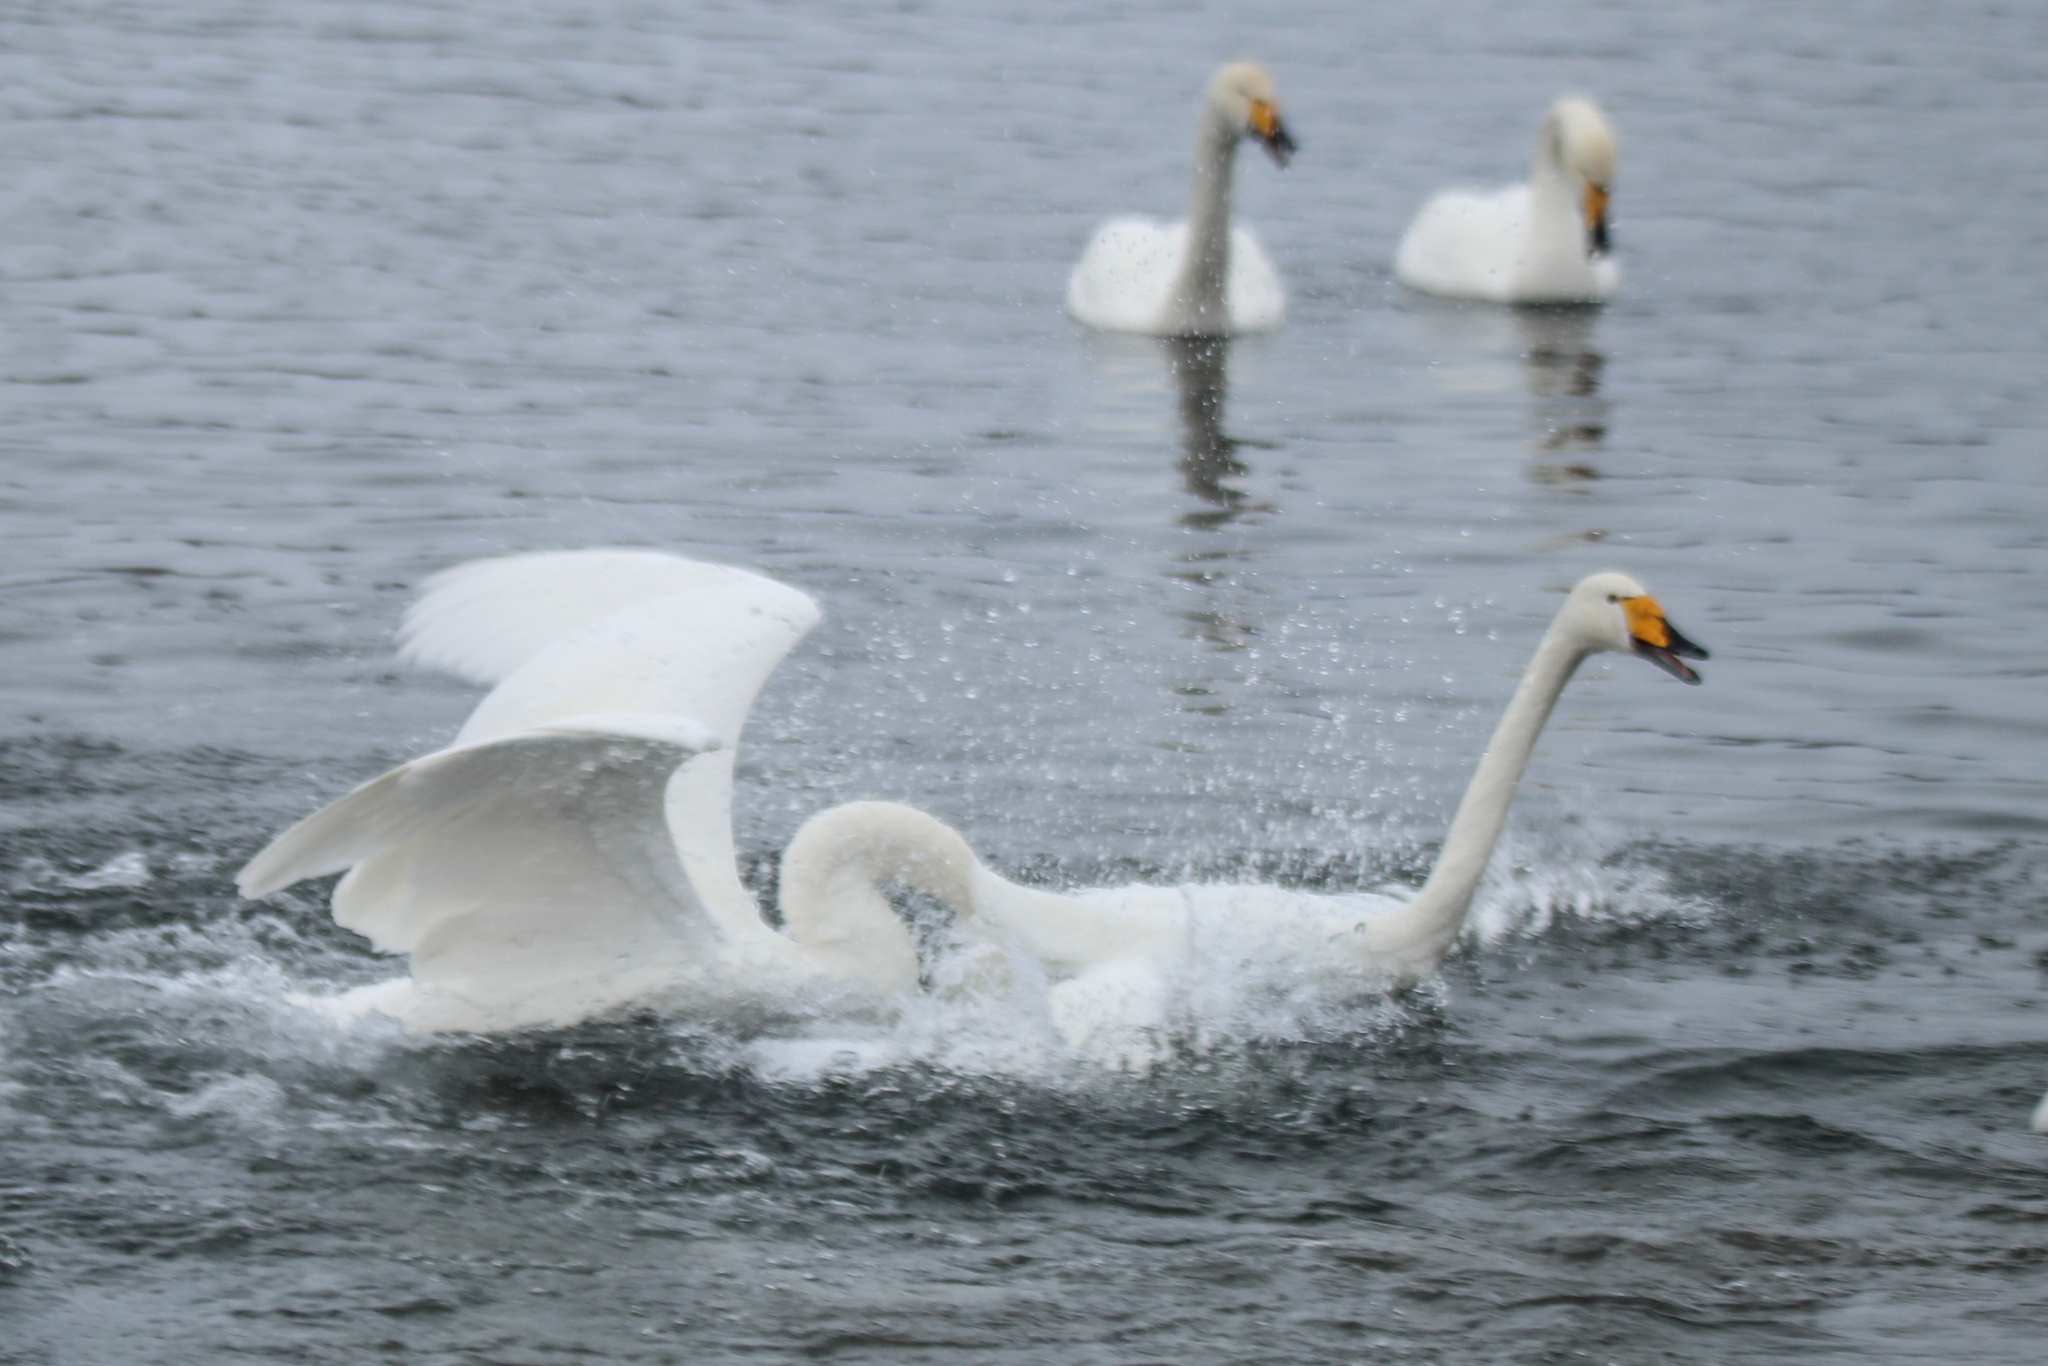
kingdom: Animalia
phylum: Chordata
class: Aves
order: Anseriformes
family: Anatidae
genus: Cygnus
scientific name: Cygnus cygnus
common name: Whooper swan
